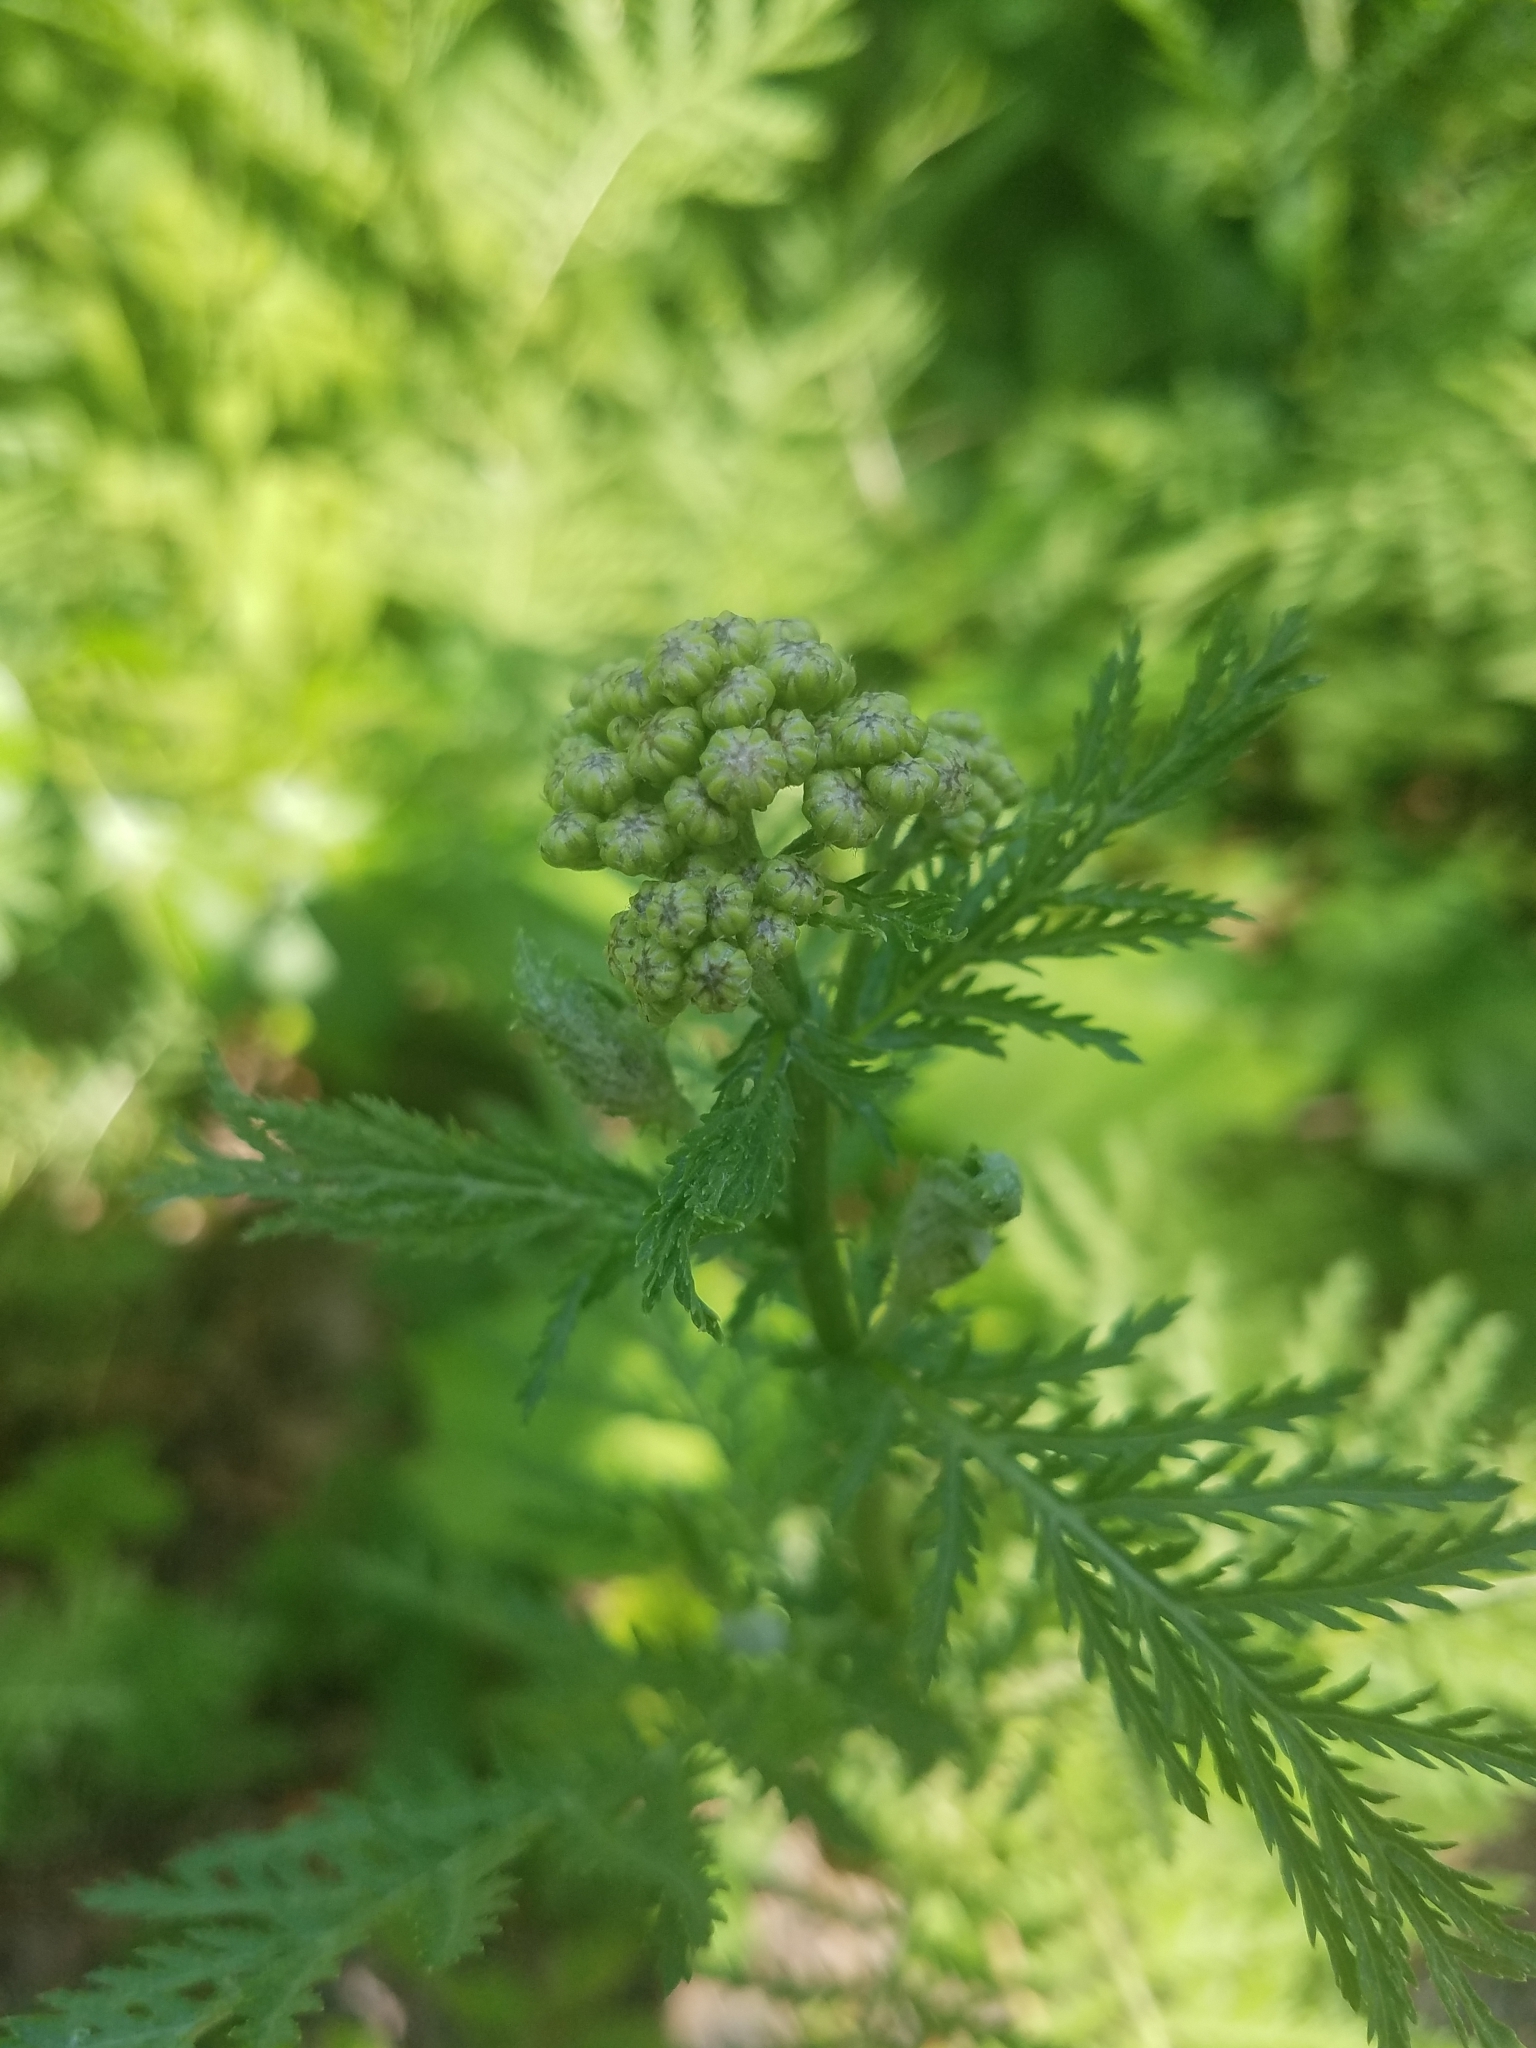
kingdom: Plantae
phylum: Tracheophyta
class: Magnoliopsida
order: Asterales
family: Asteraceae
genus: Achillea
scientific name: Achillea filipendulina
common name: Fernleaf yarrow
